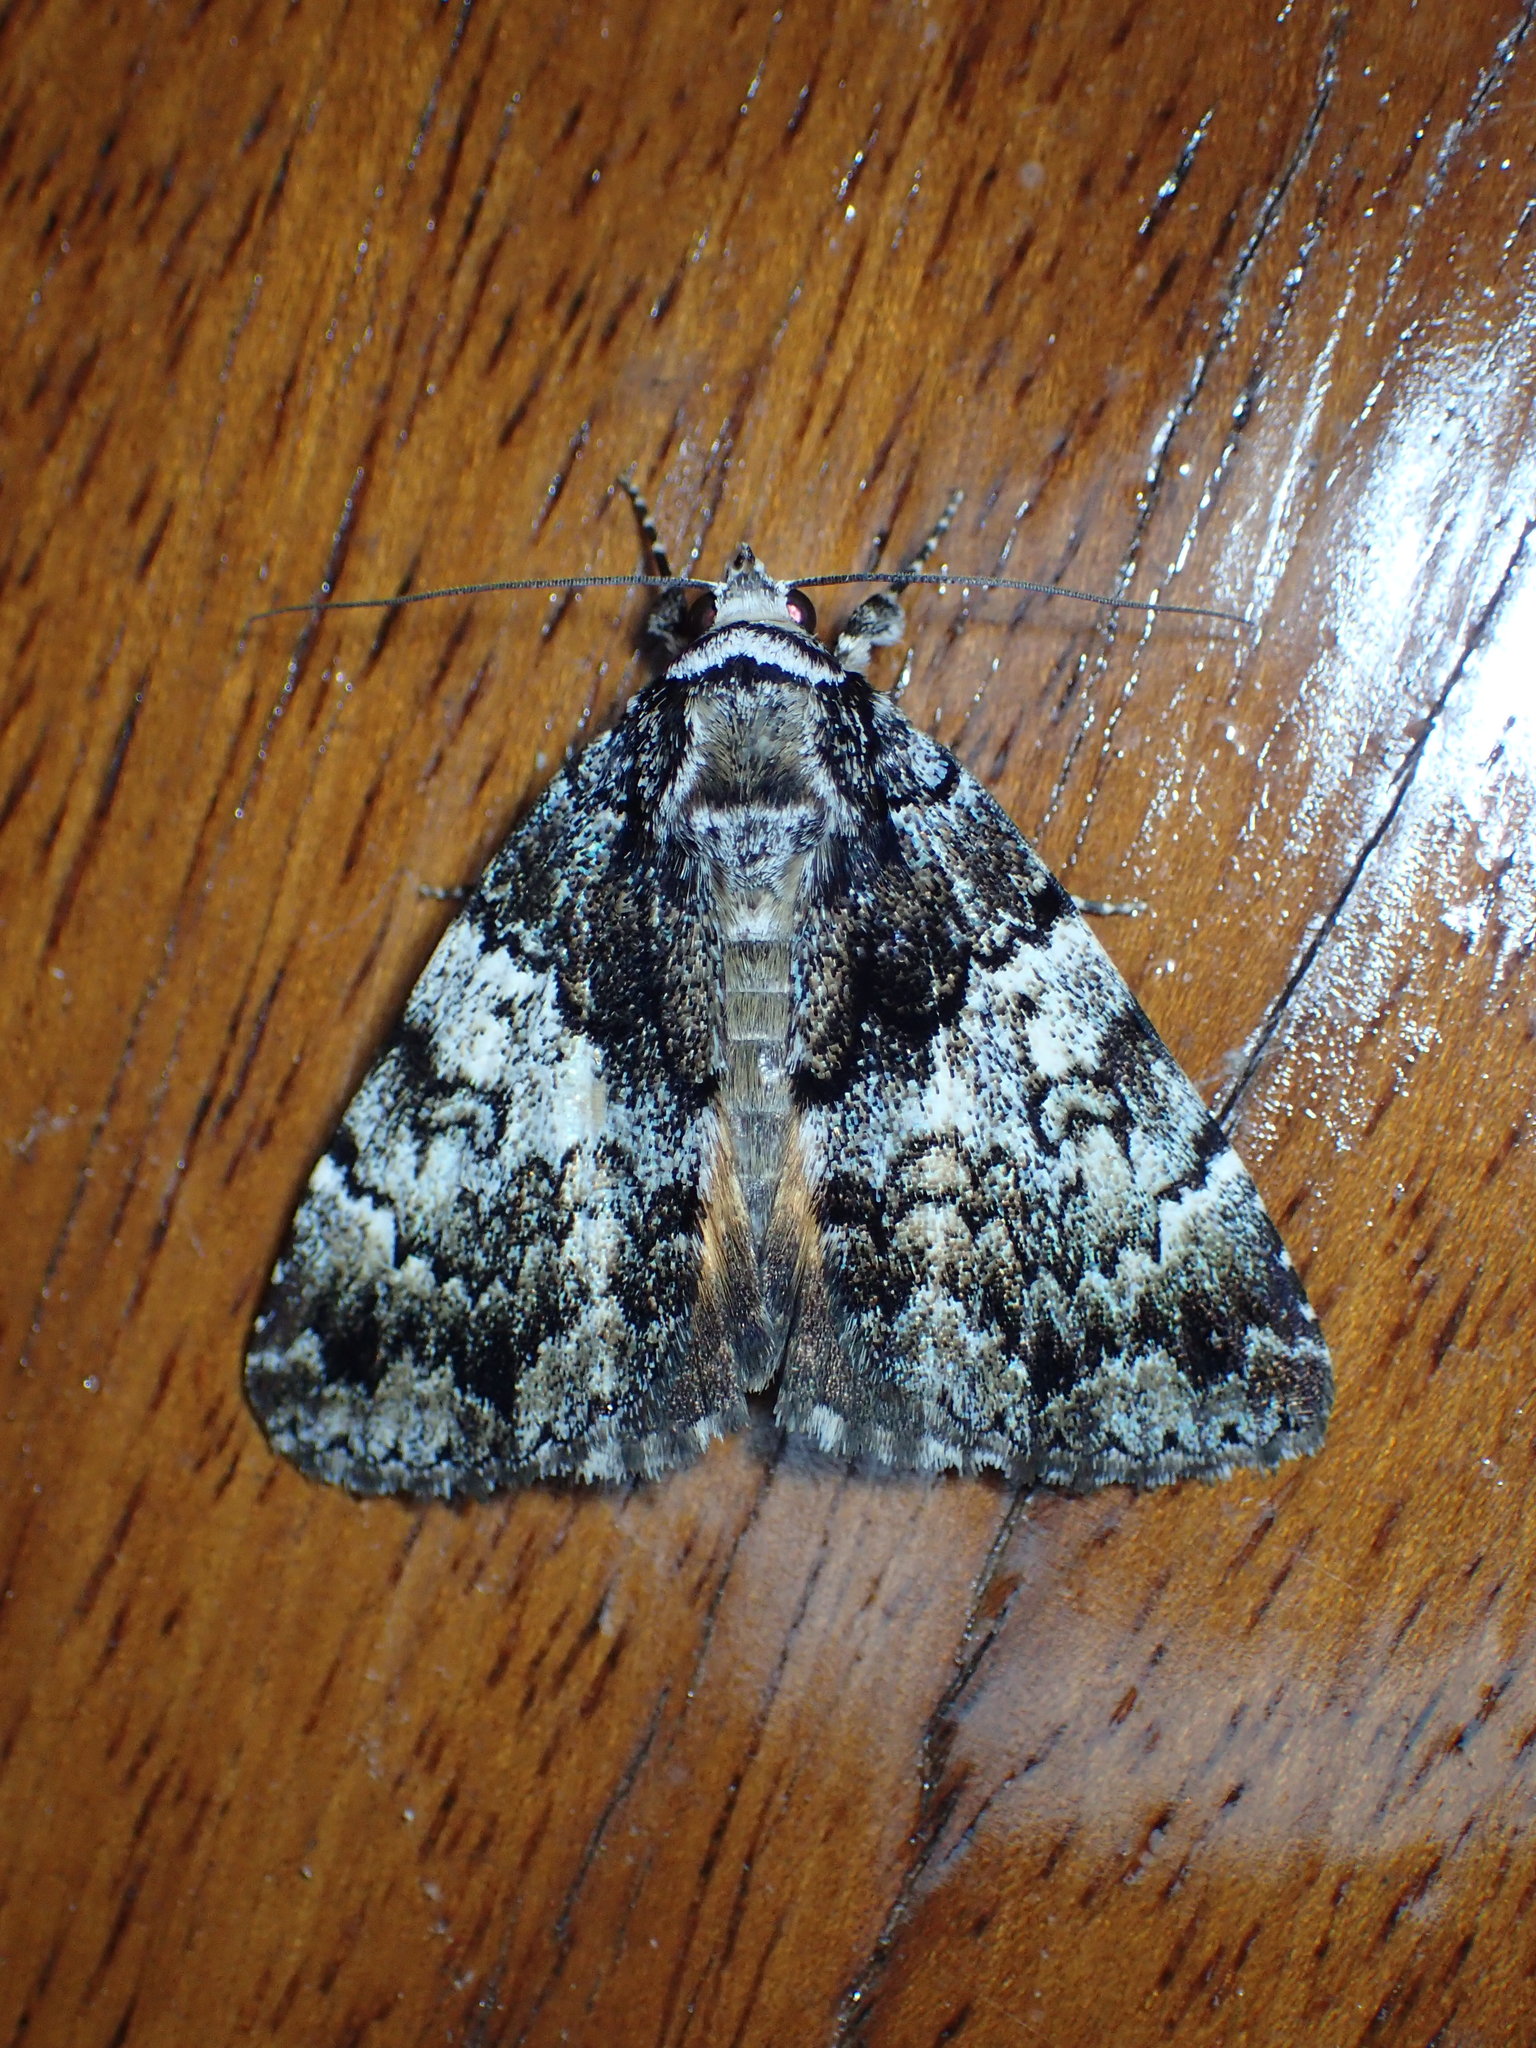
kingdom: Animalia
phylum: Arthropoda
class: Insecta
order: Lepidoptera
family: Erebidae
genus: Allotria
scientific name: Allotria elonympha
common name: False underwing
